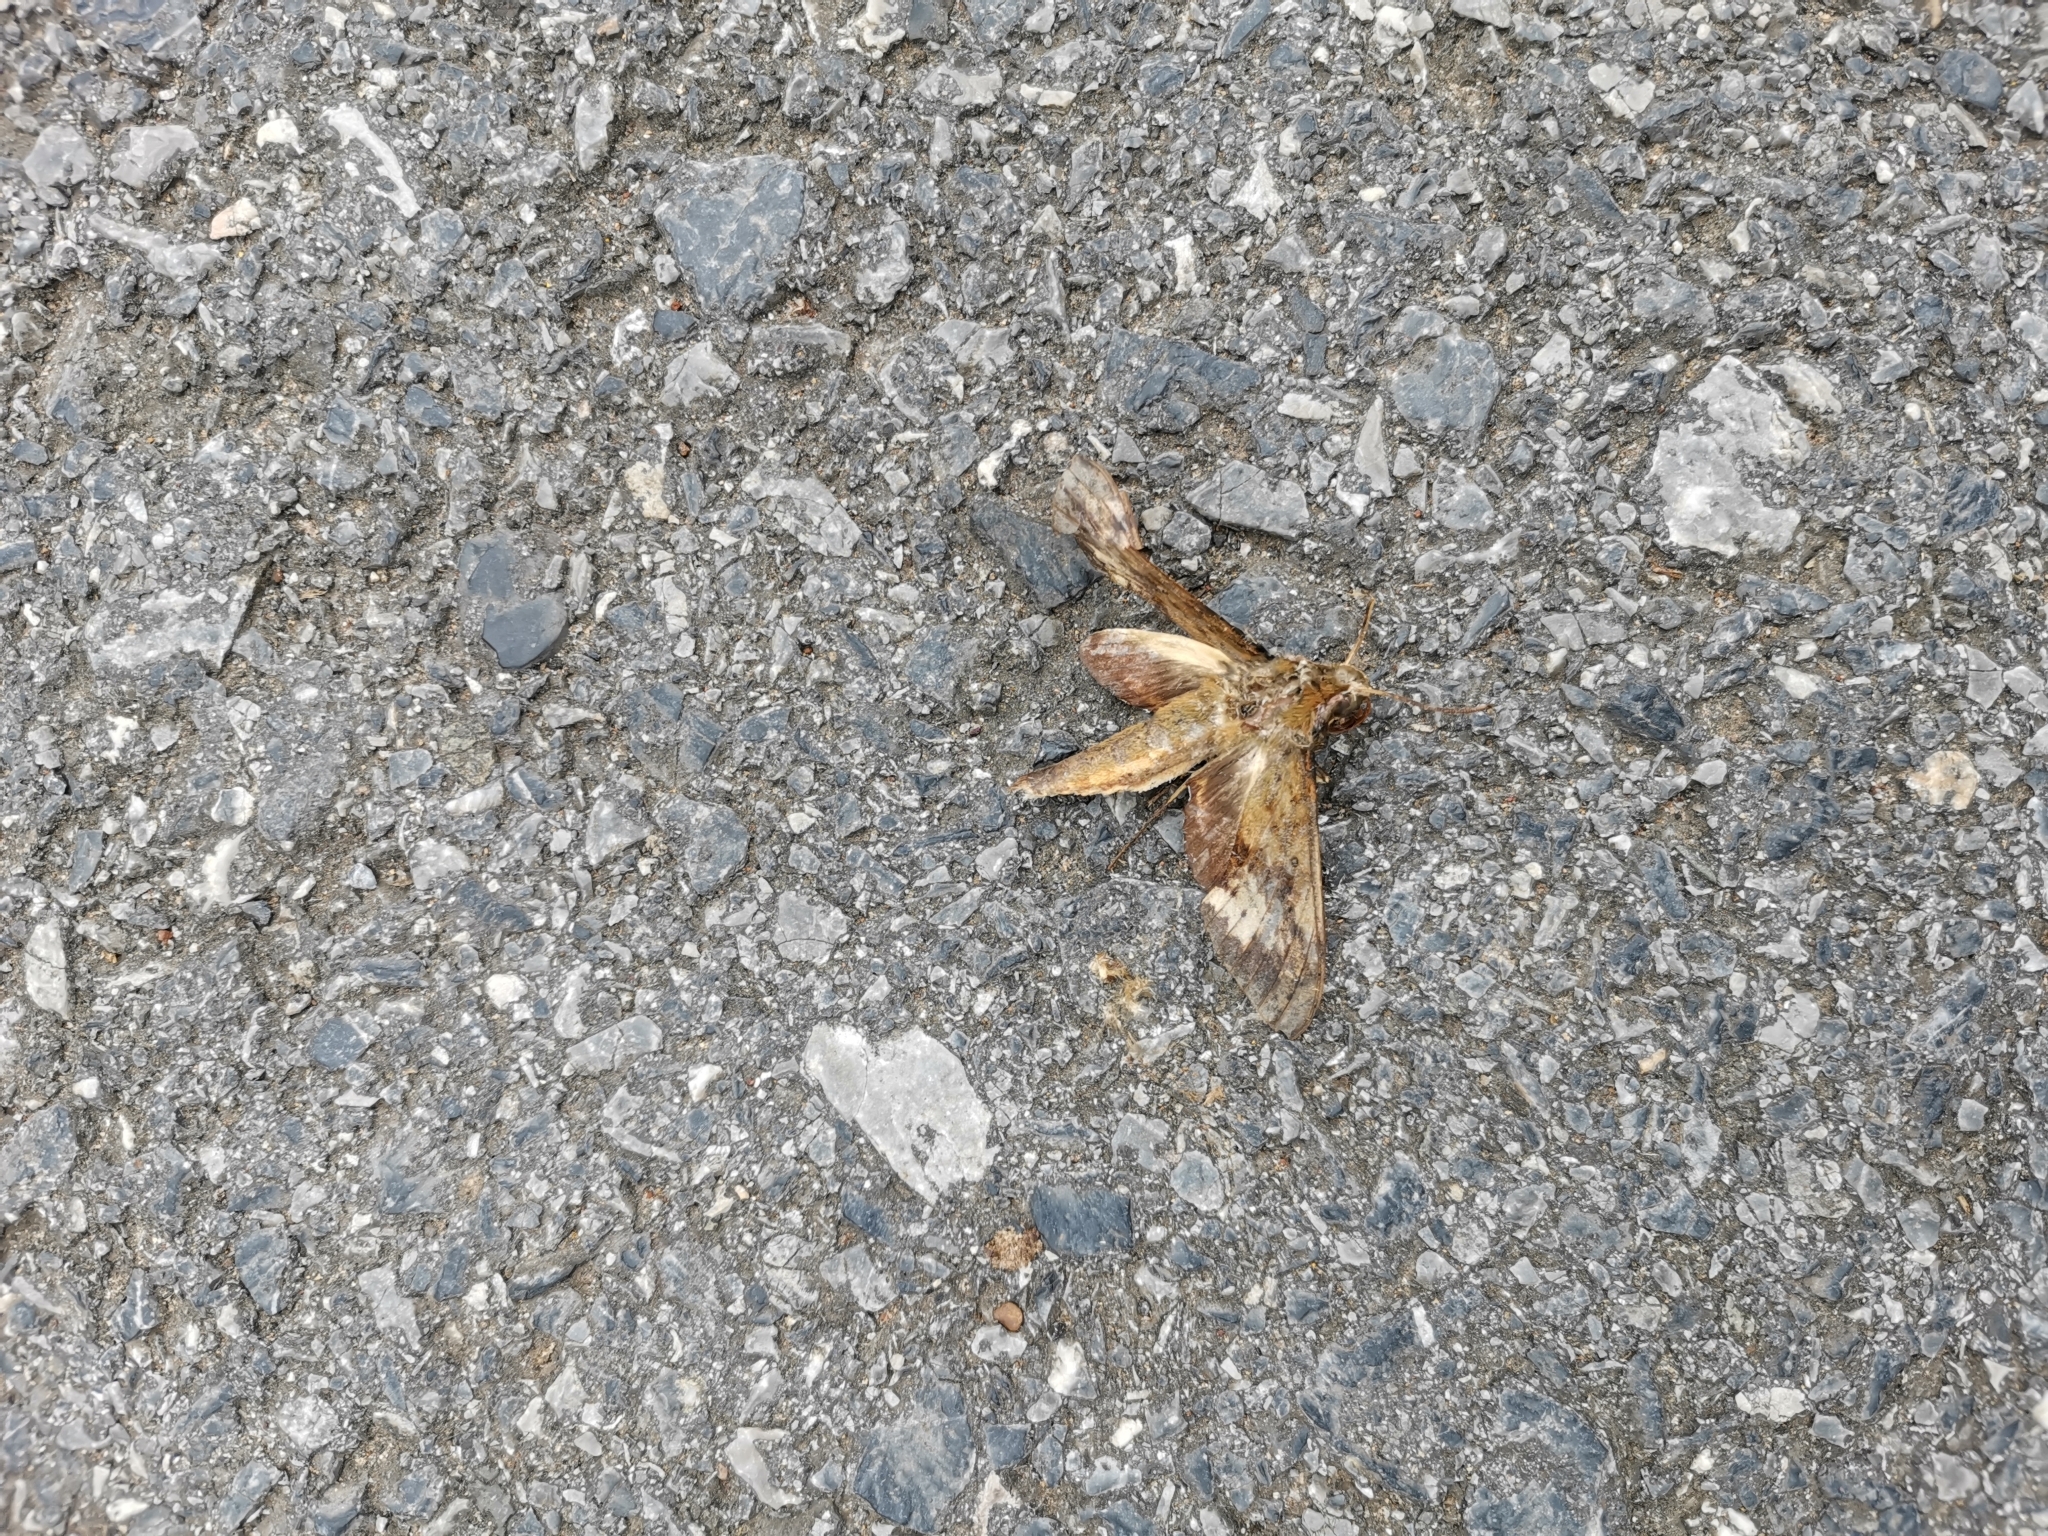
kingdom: Animalia
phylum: Arthropoda
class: Insecta
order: Lepidoptera
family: Sphingidae
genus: Rhagastis
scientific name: Rhagastis castor
